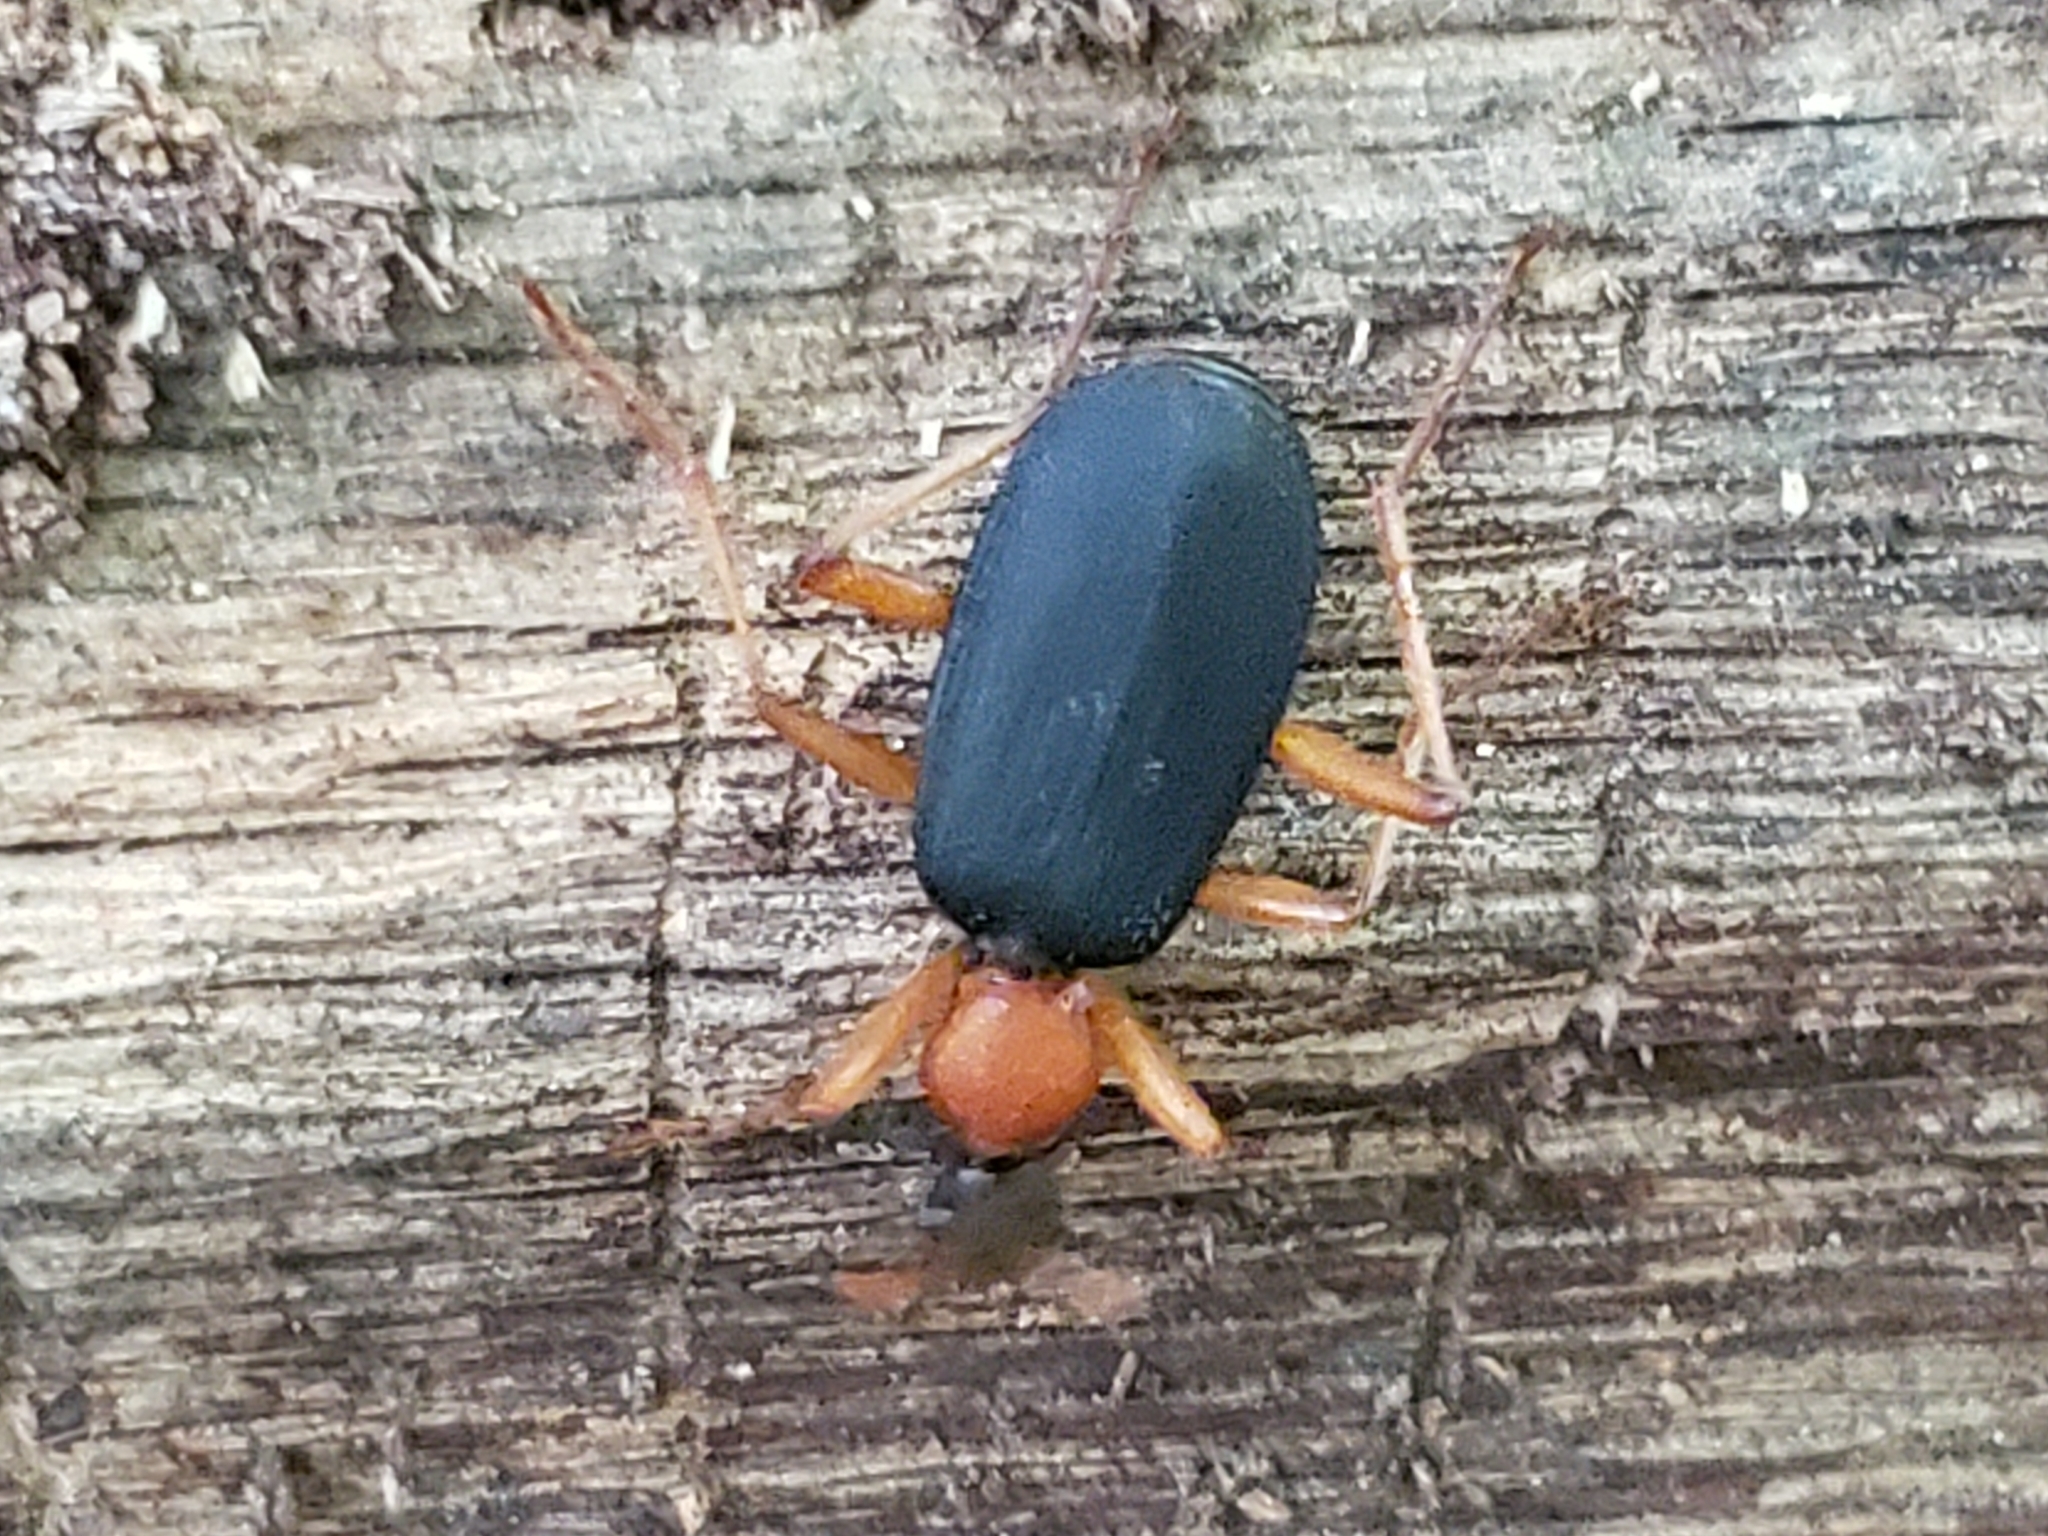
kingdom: Animalia
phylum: Arthropoda
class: Insecta
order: Coleoptera
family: Carabidae
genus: Galerita
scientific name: Galerita bicolor
